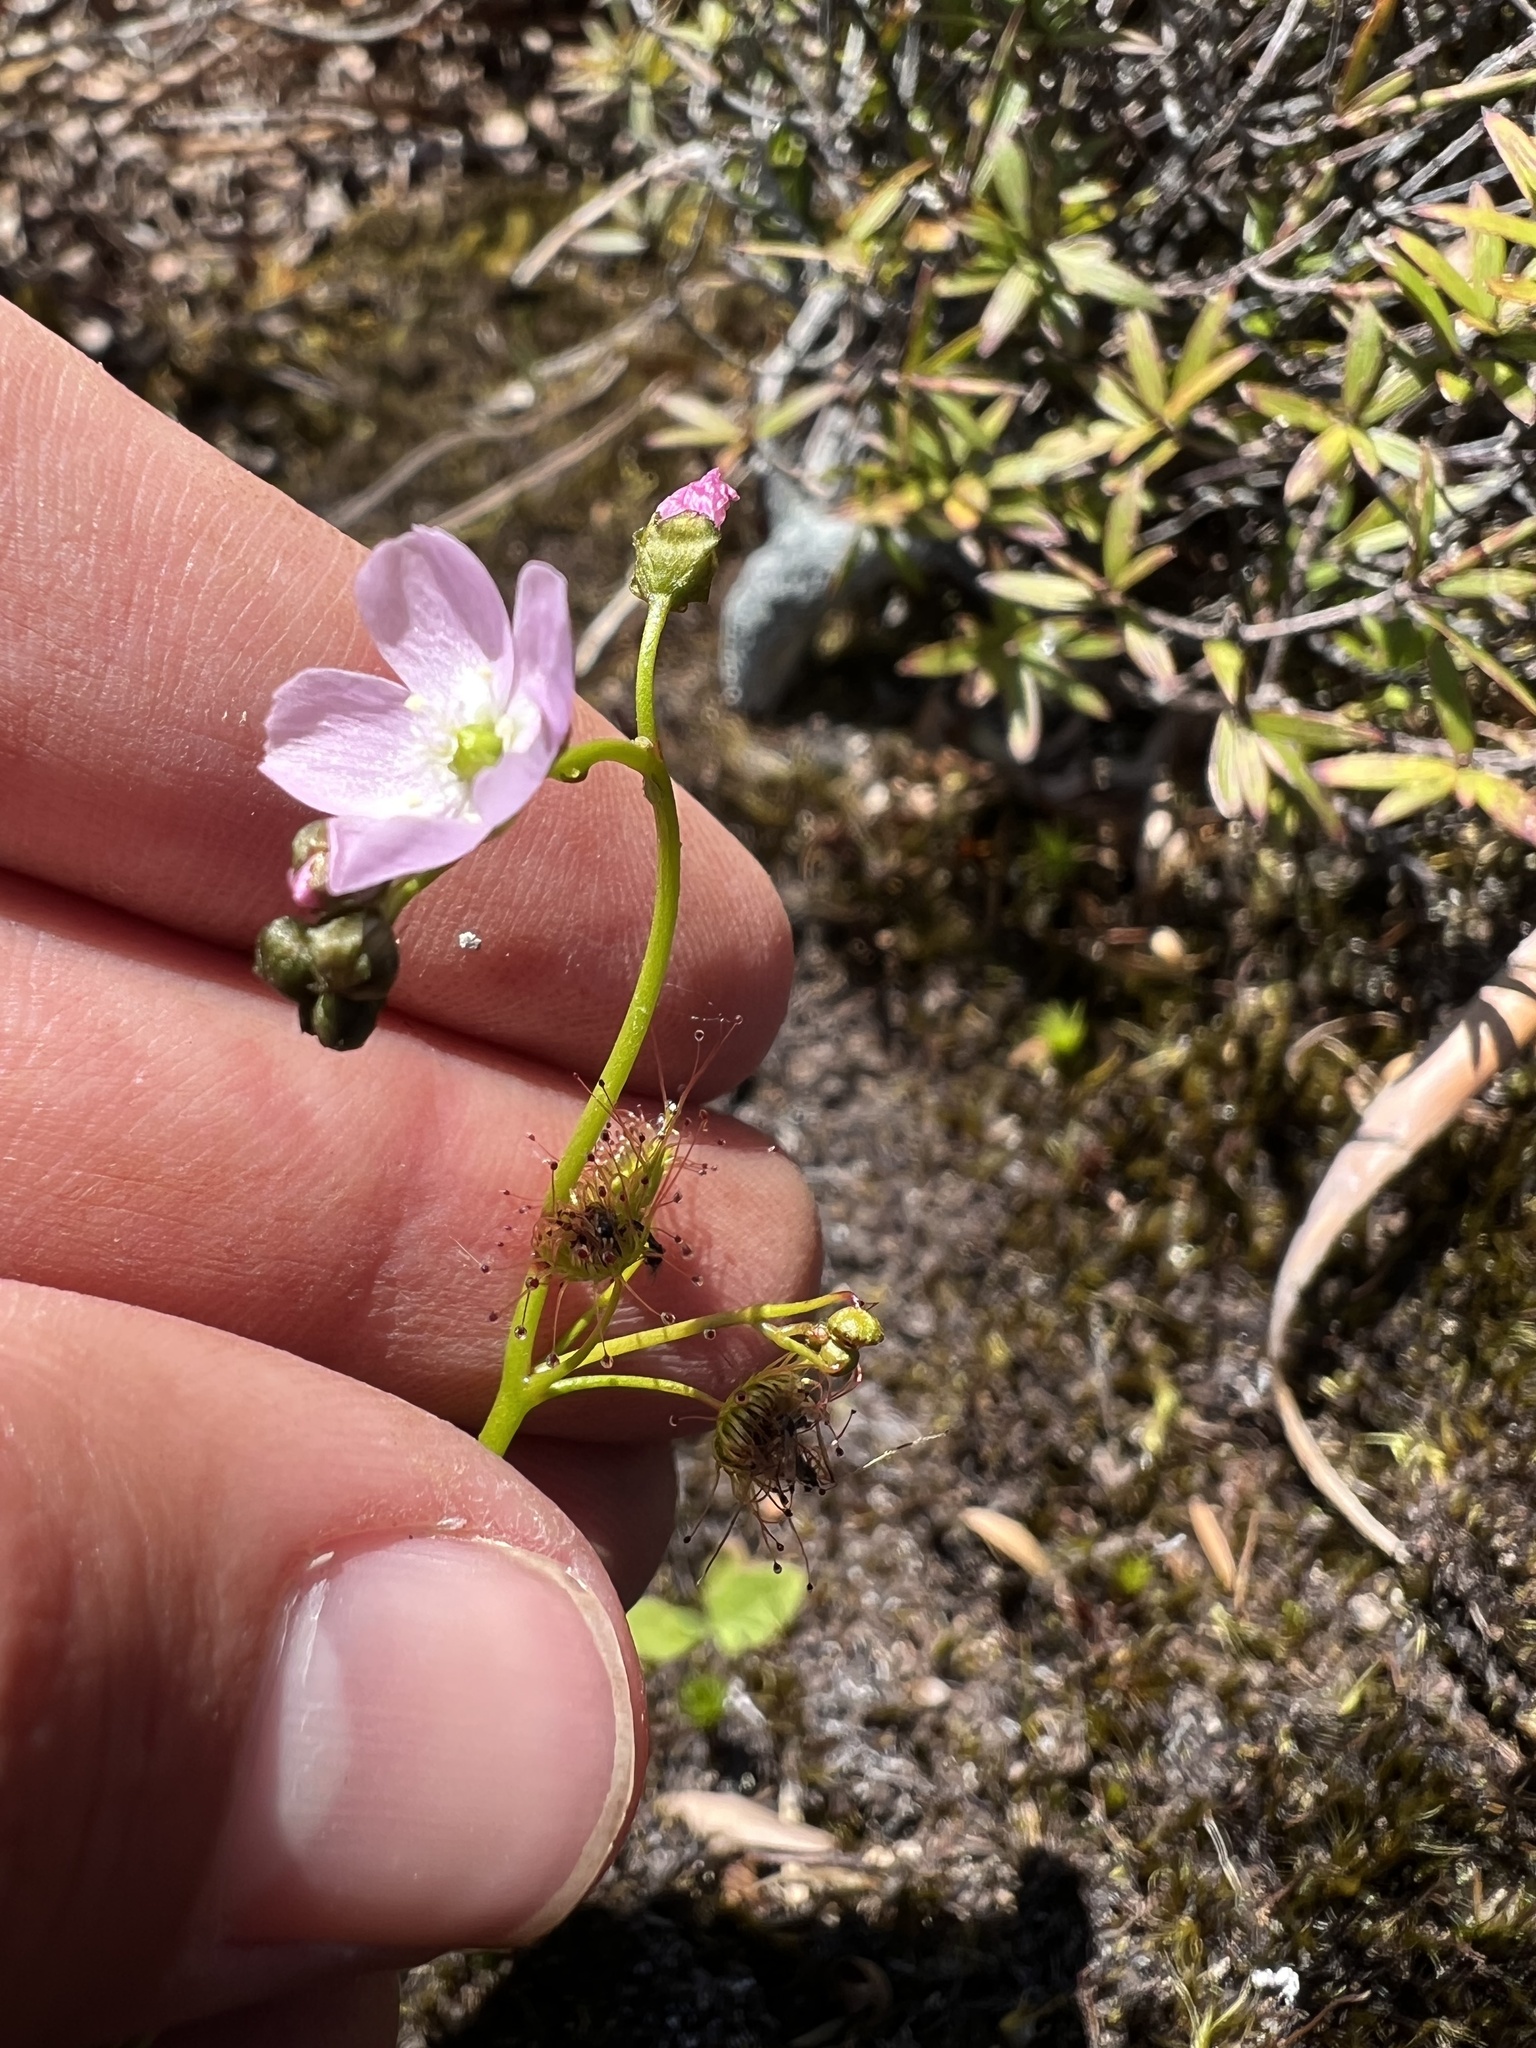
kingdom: Plantae
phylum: Tracheophyta
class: Magnoliopsida
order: Caryophyllales
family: Droseraceae
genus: Drosera
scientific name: Drosera peltata
